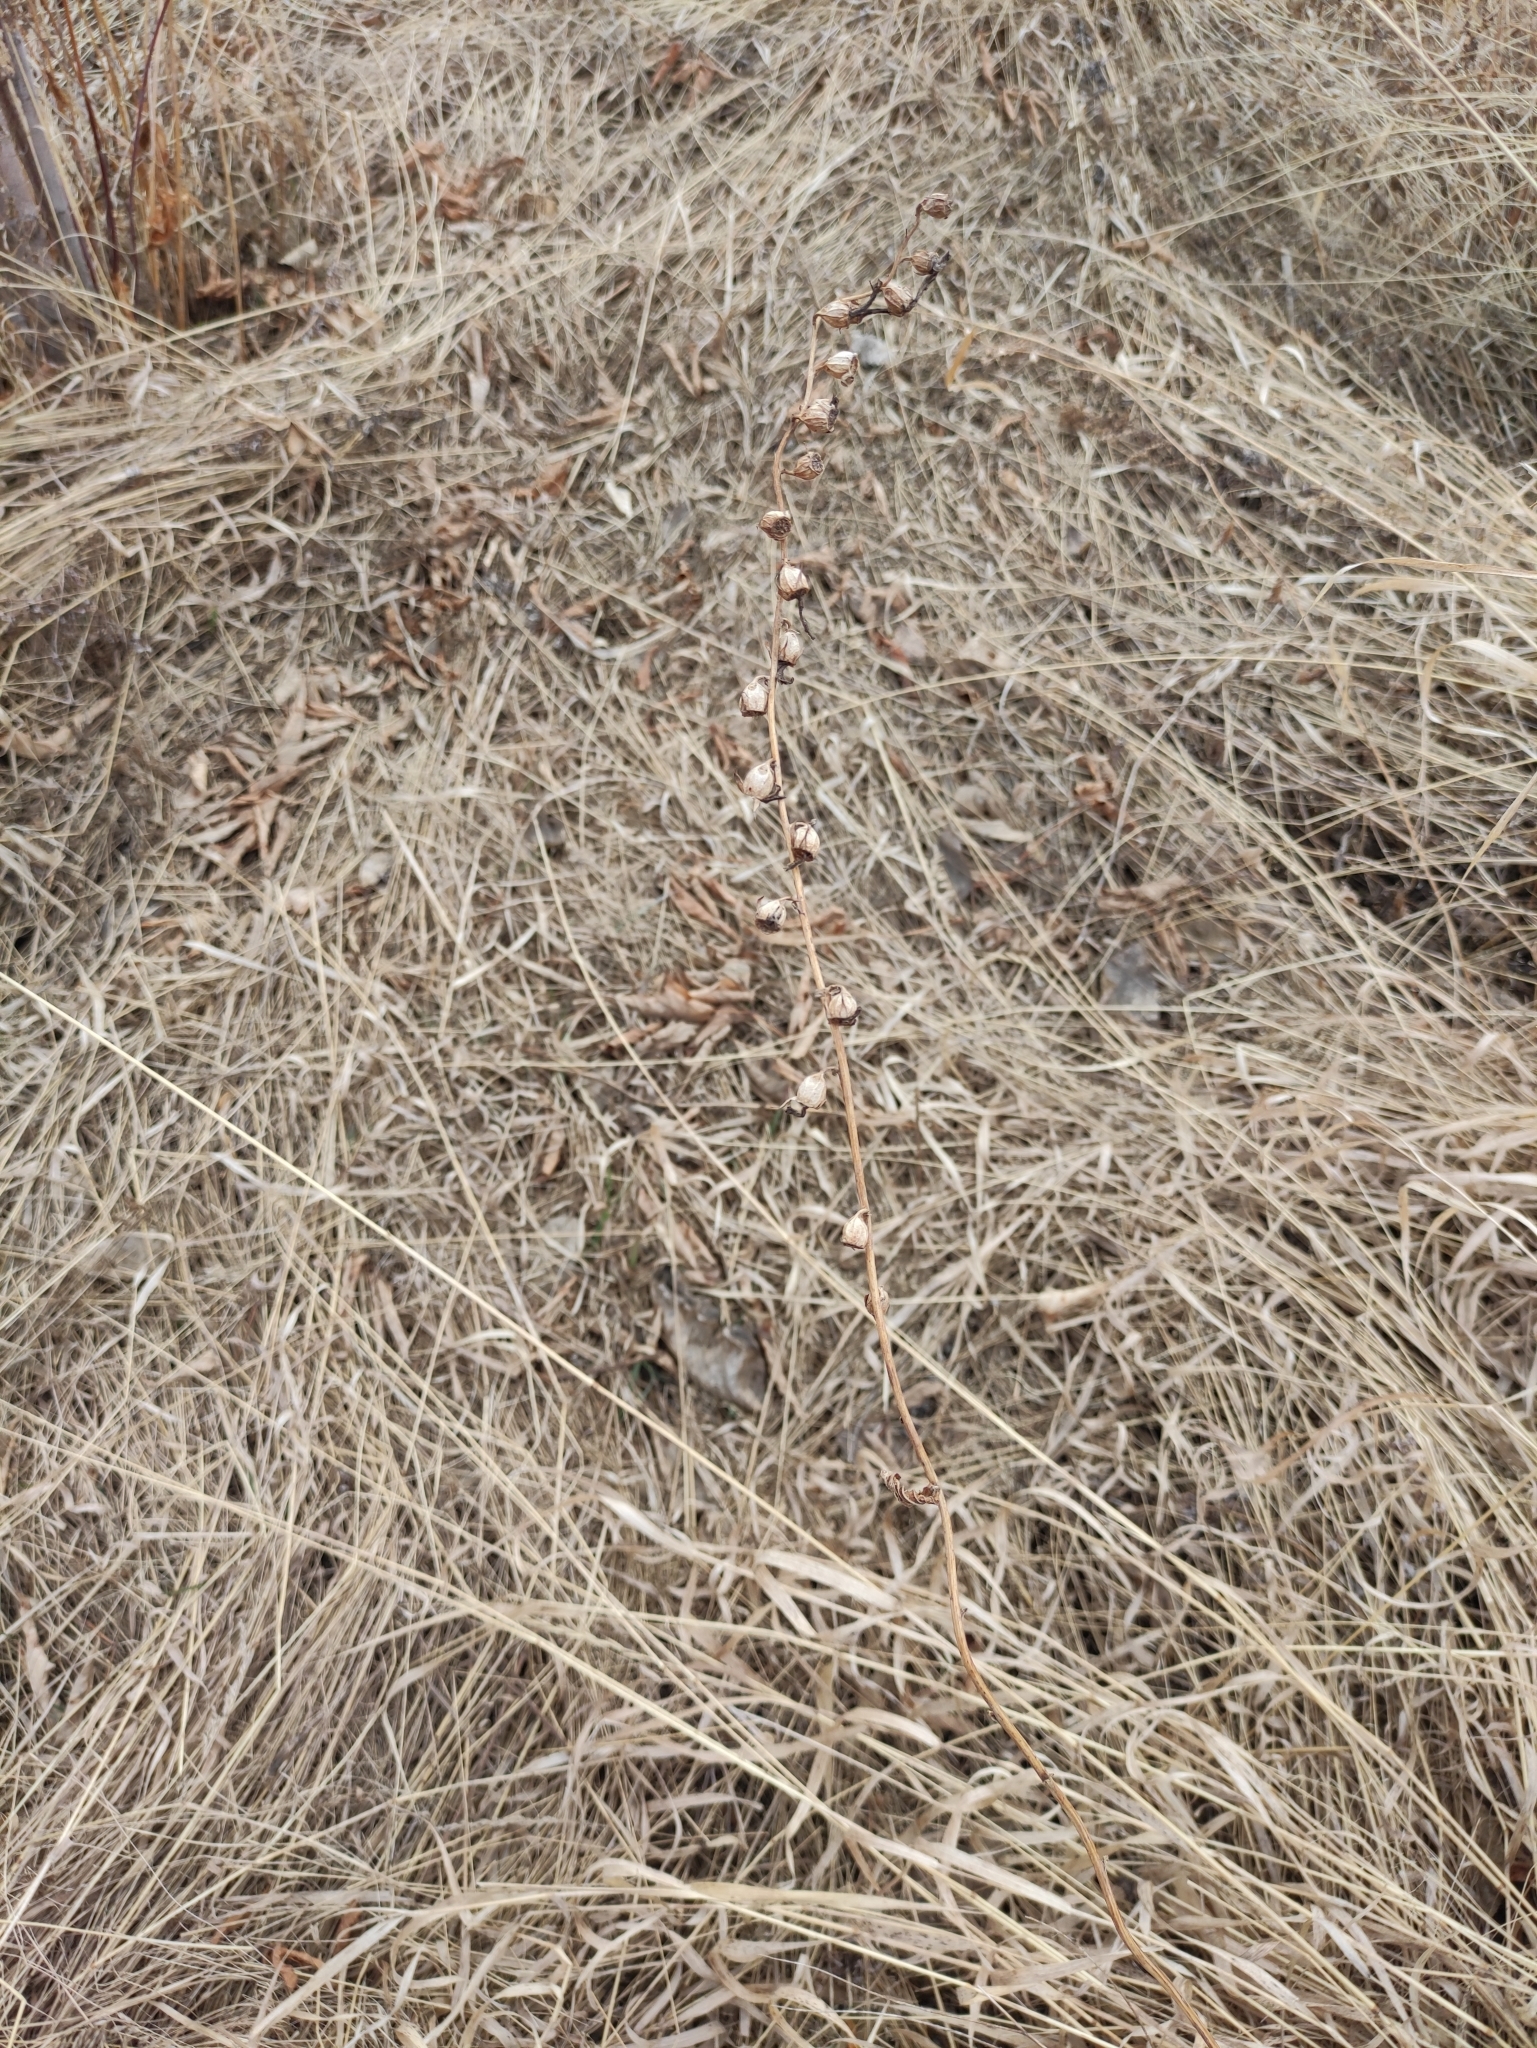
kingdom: Plantae
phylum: Tracheophyta
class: Magnoliopsida
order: Asterales
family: Campanulaceae
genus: Campanula
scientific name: Campanula rapunculoides
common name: Creeping bellflower
